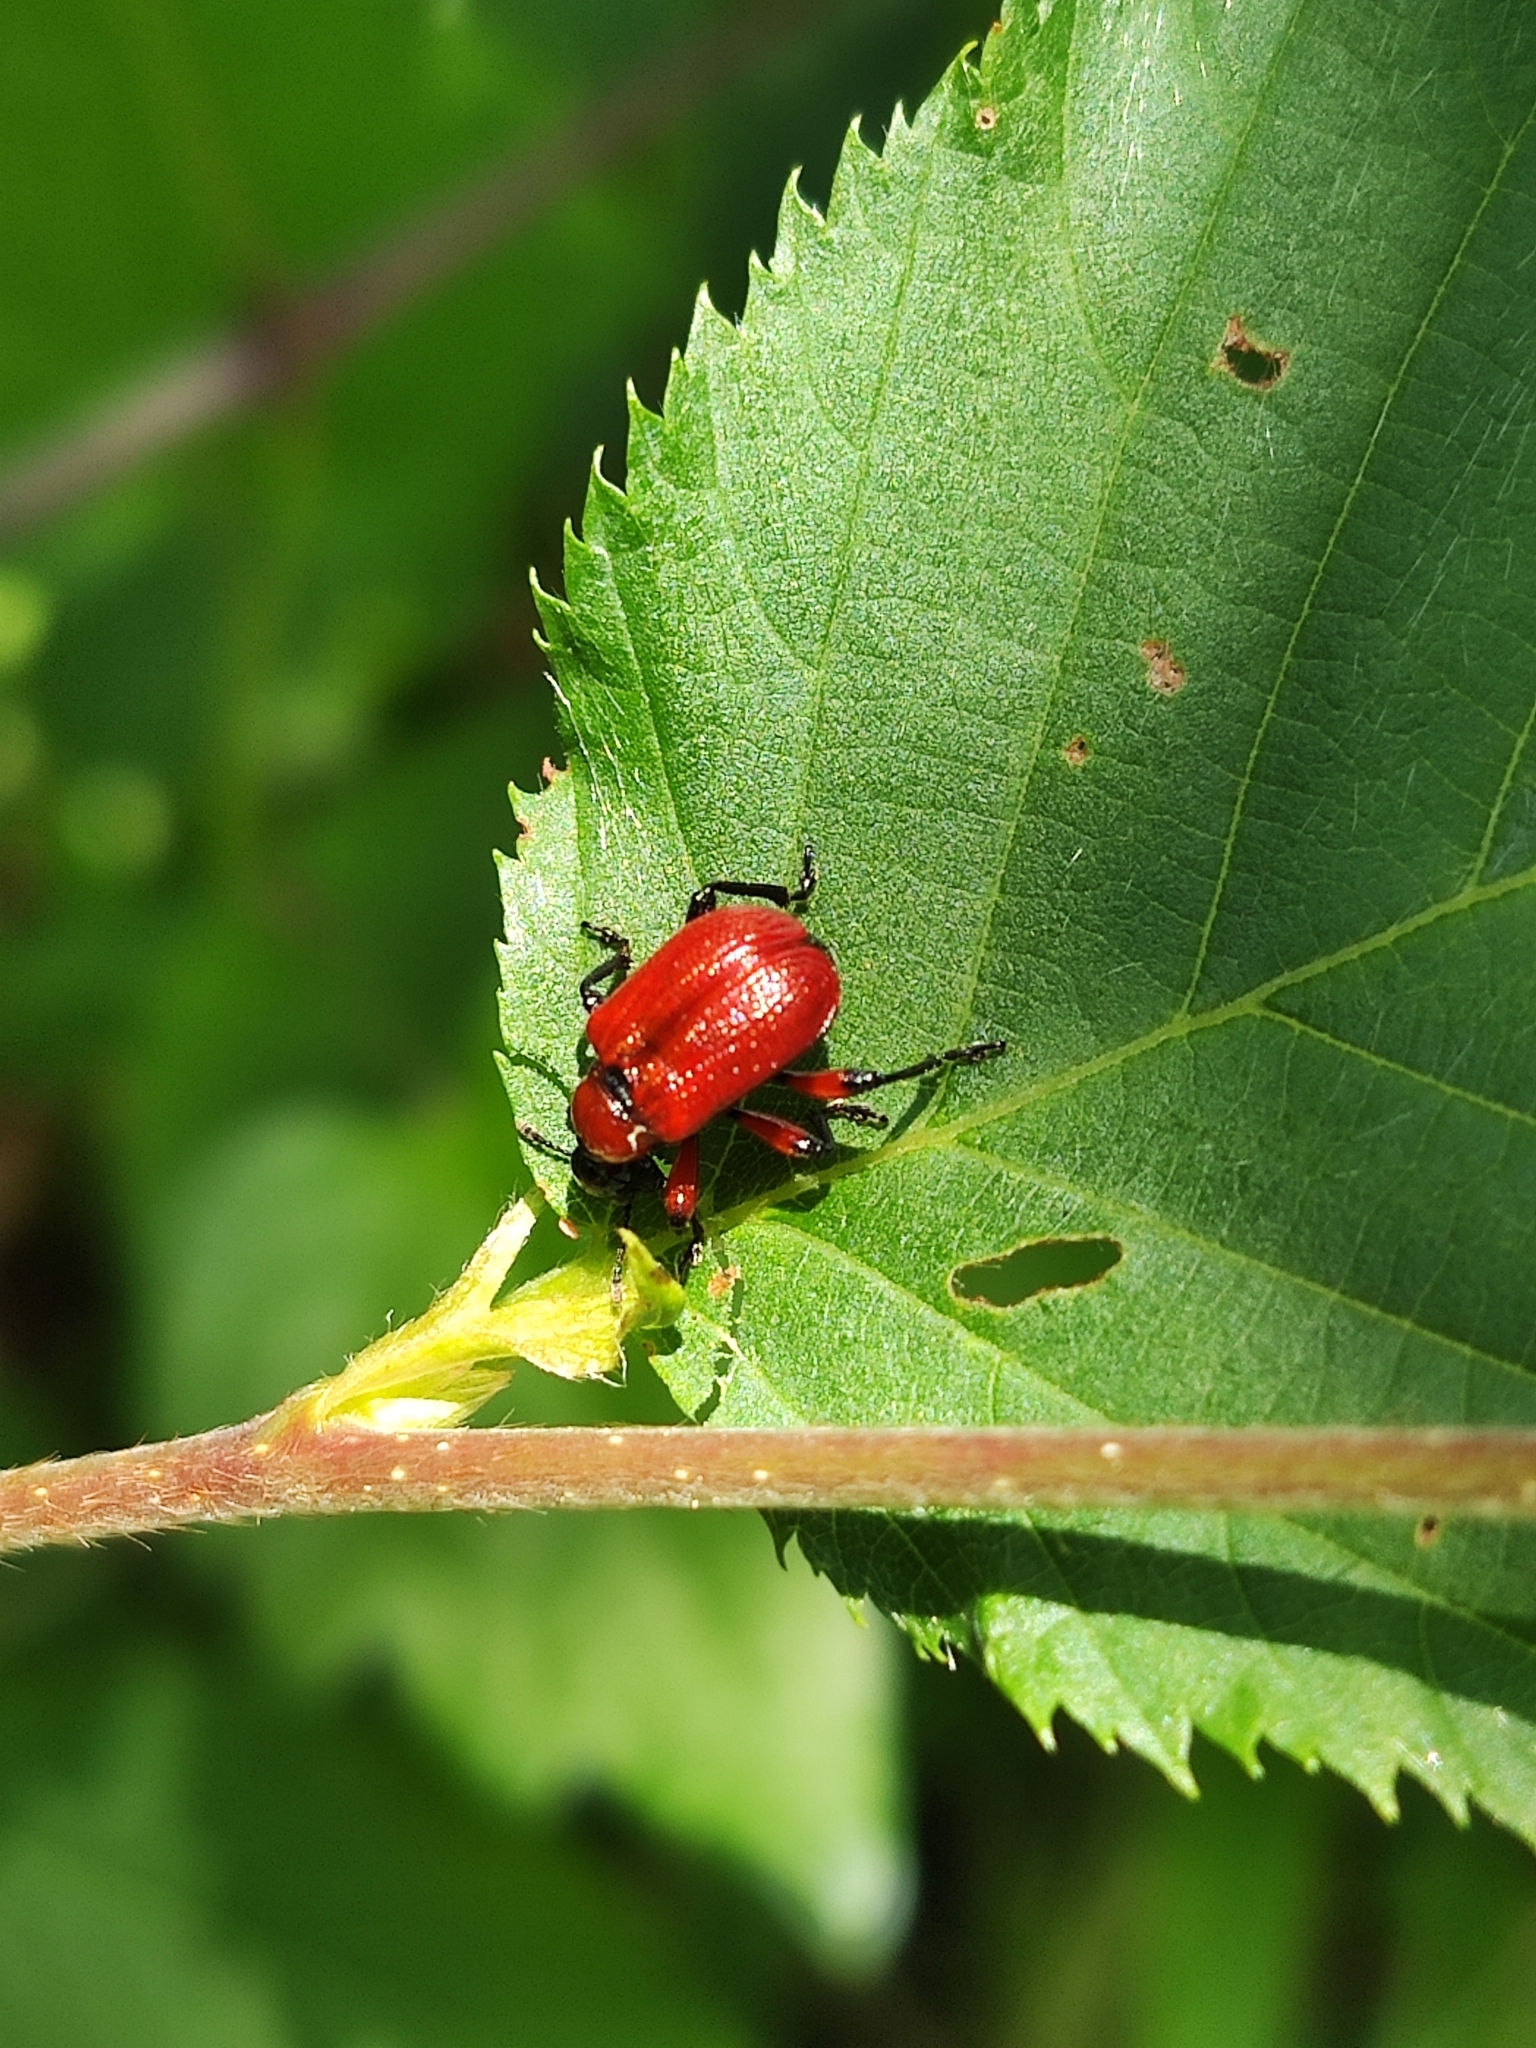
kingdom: Animalia
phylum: Arthropoda
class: Insecta
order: Coleoptera
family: Attelabidae
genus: Apoderus
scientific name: Apoderus coryli
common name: Hazel leaf roller
